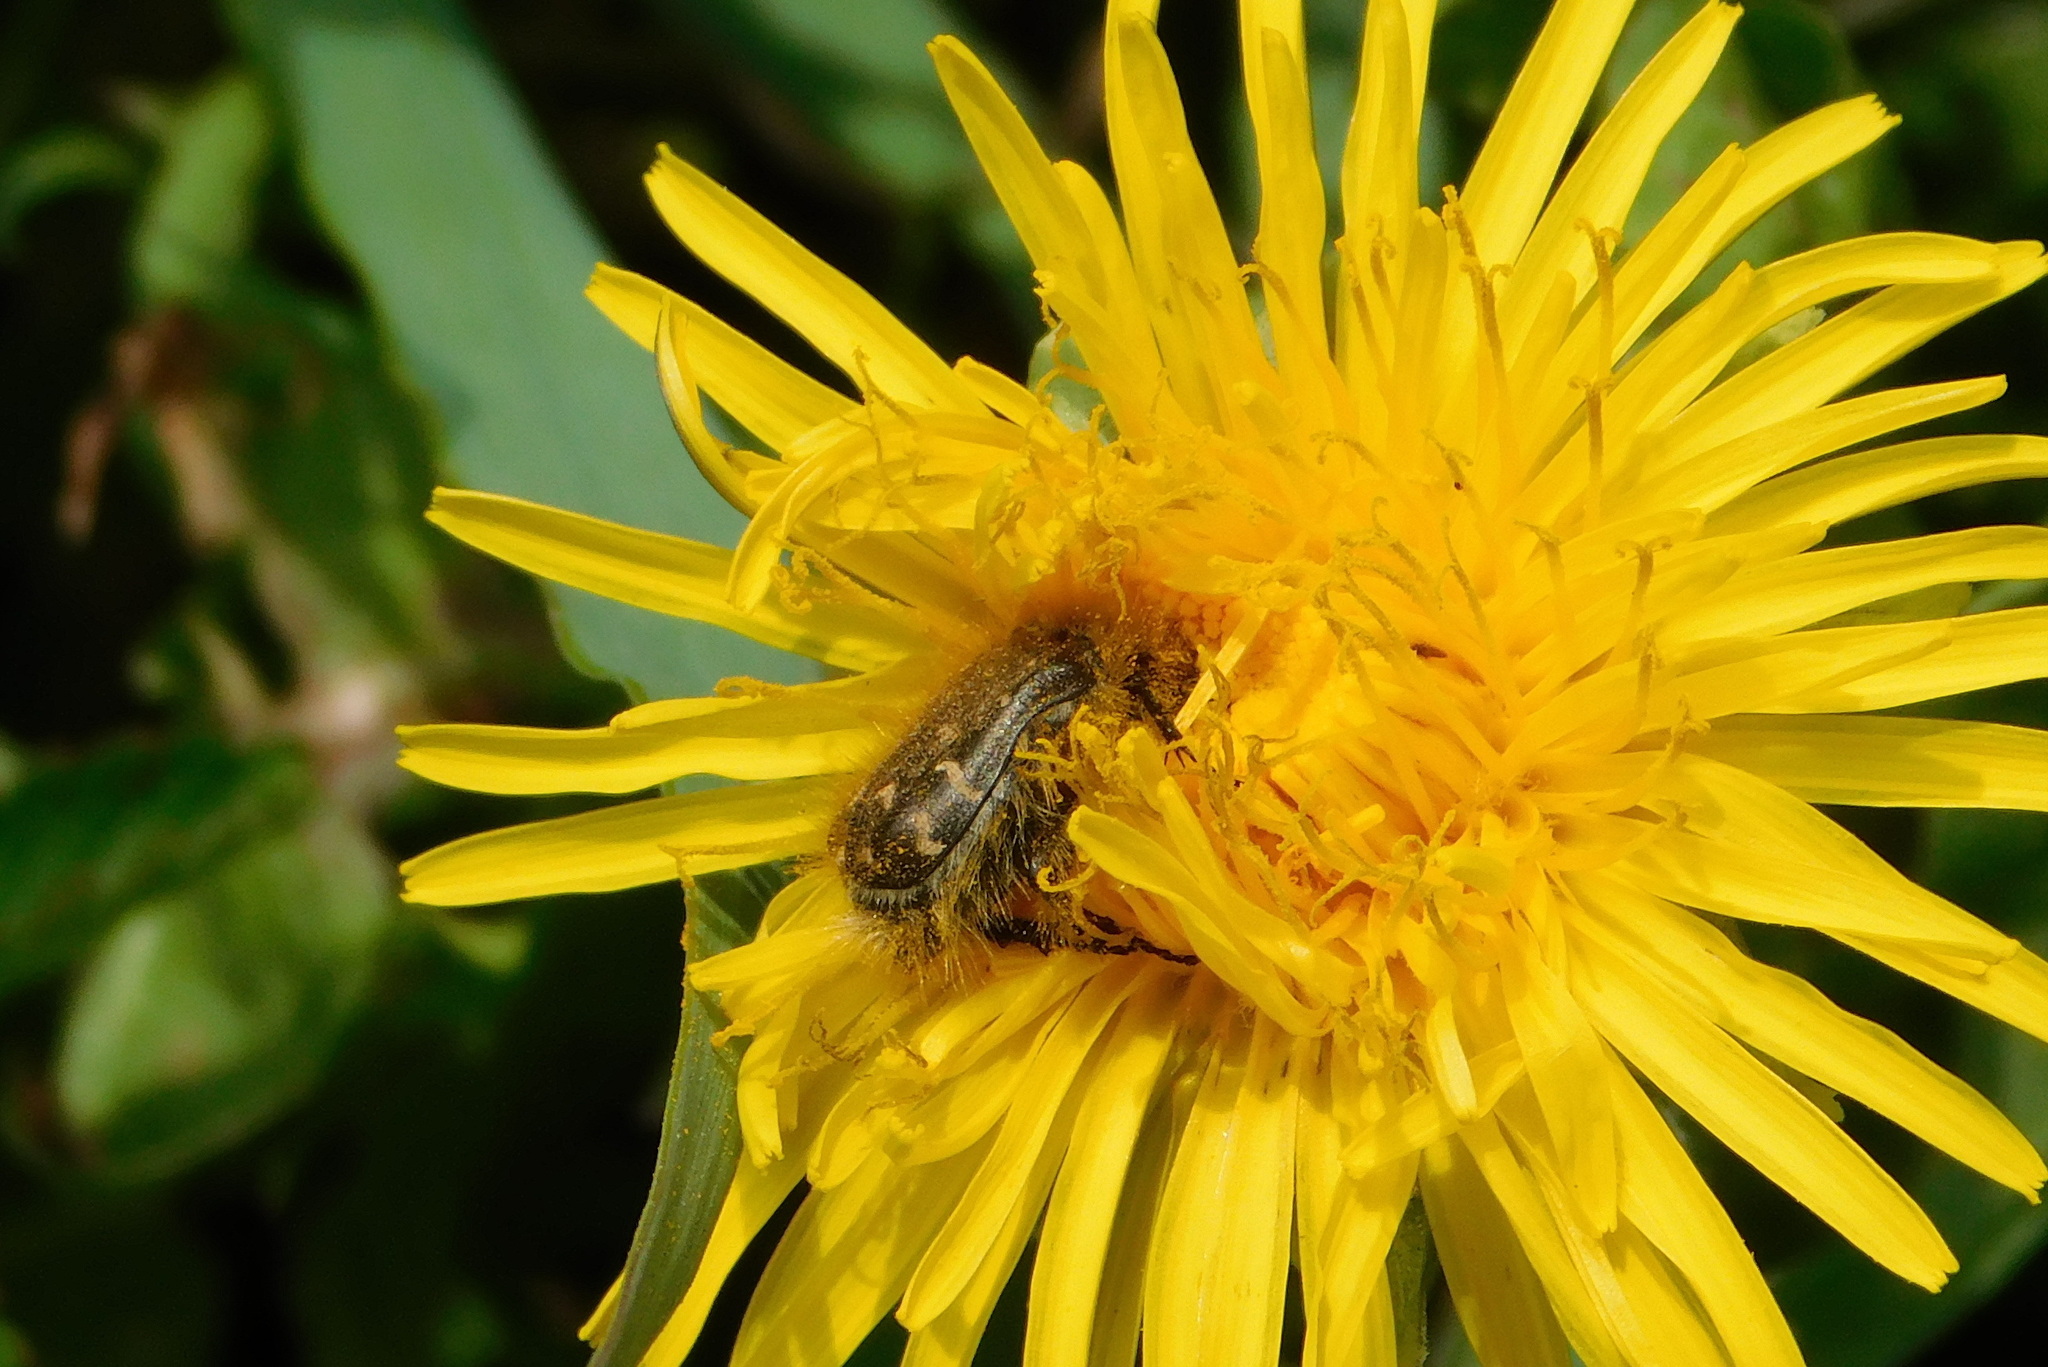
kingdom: Animalia
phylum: Arthropoda
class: Insecta
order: Coleoptera
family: Scarabaeidae
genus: Tropinota
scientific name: Tropinota hirta
